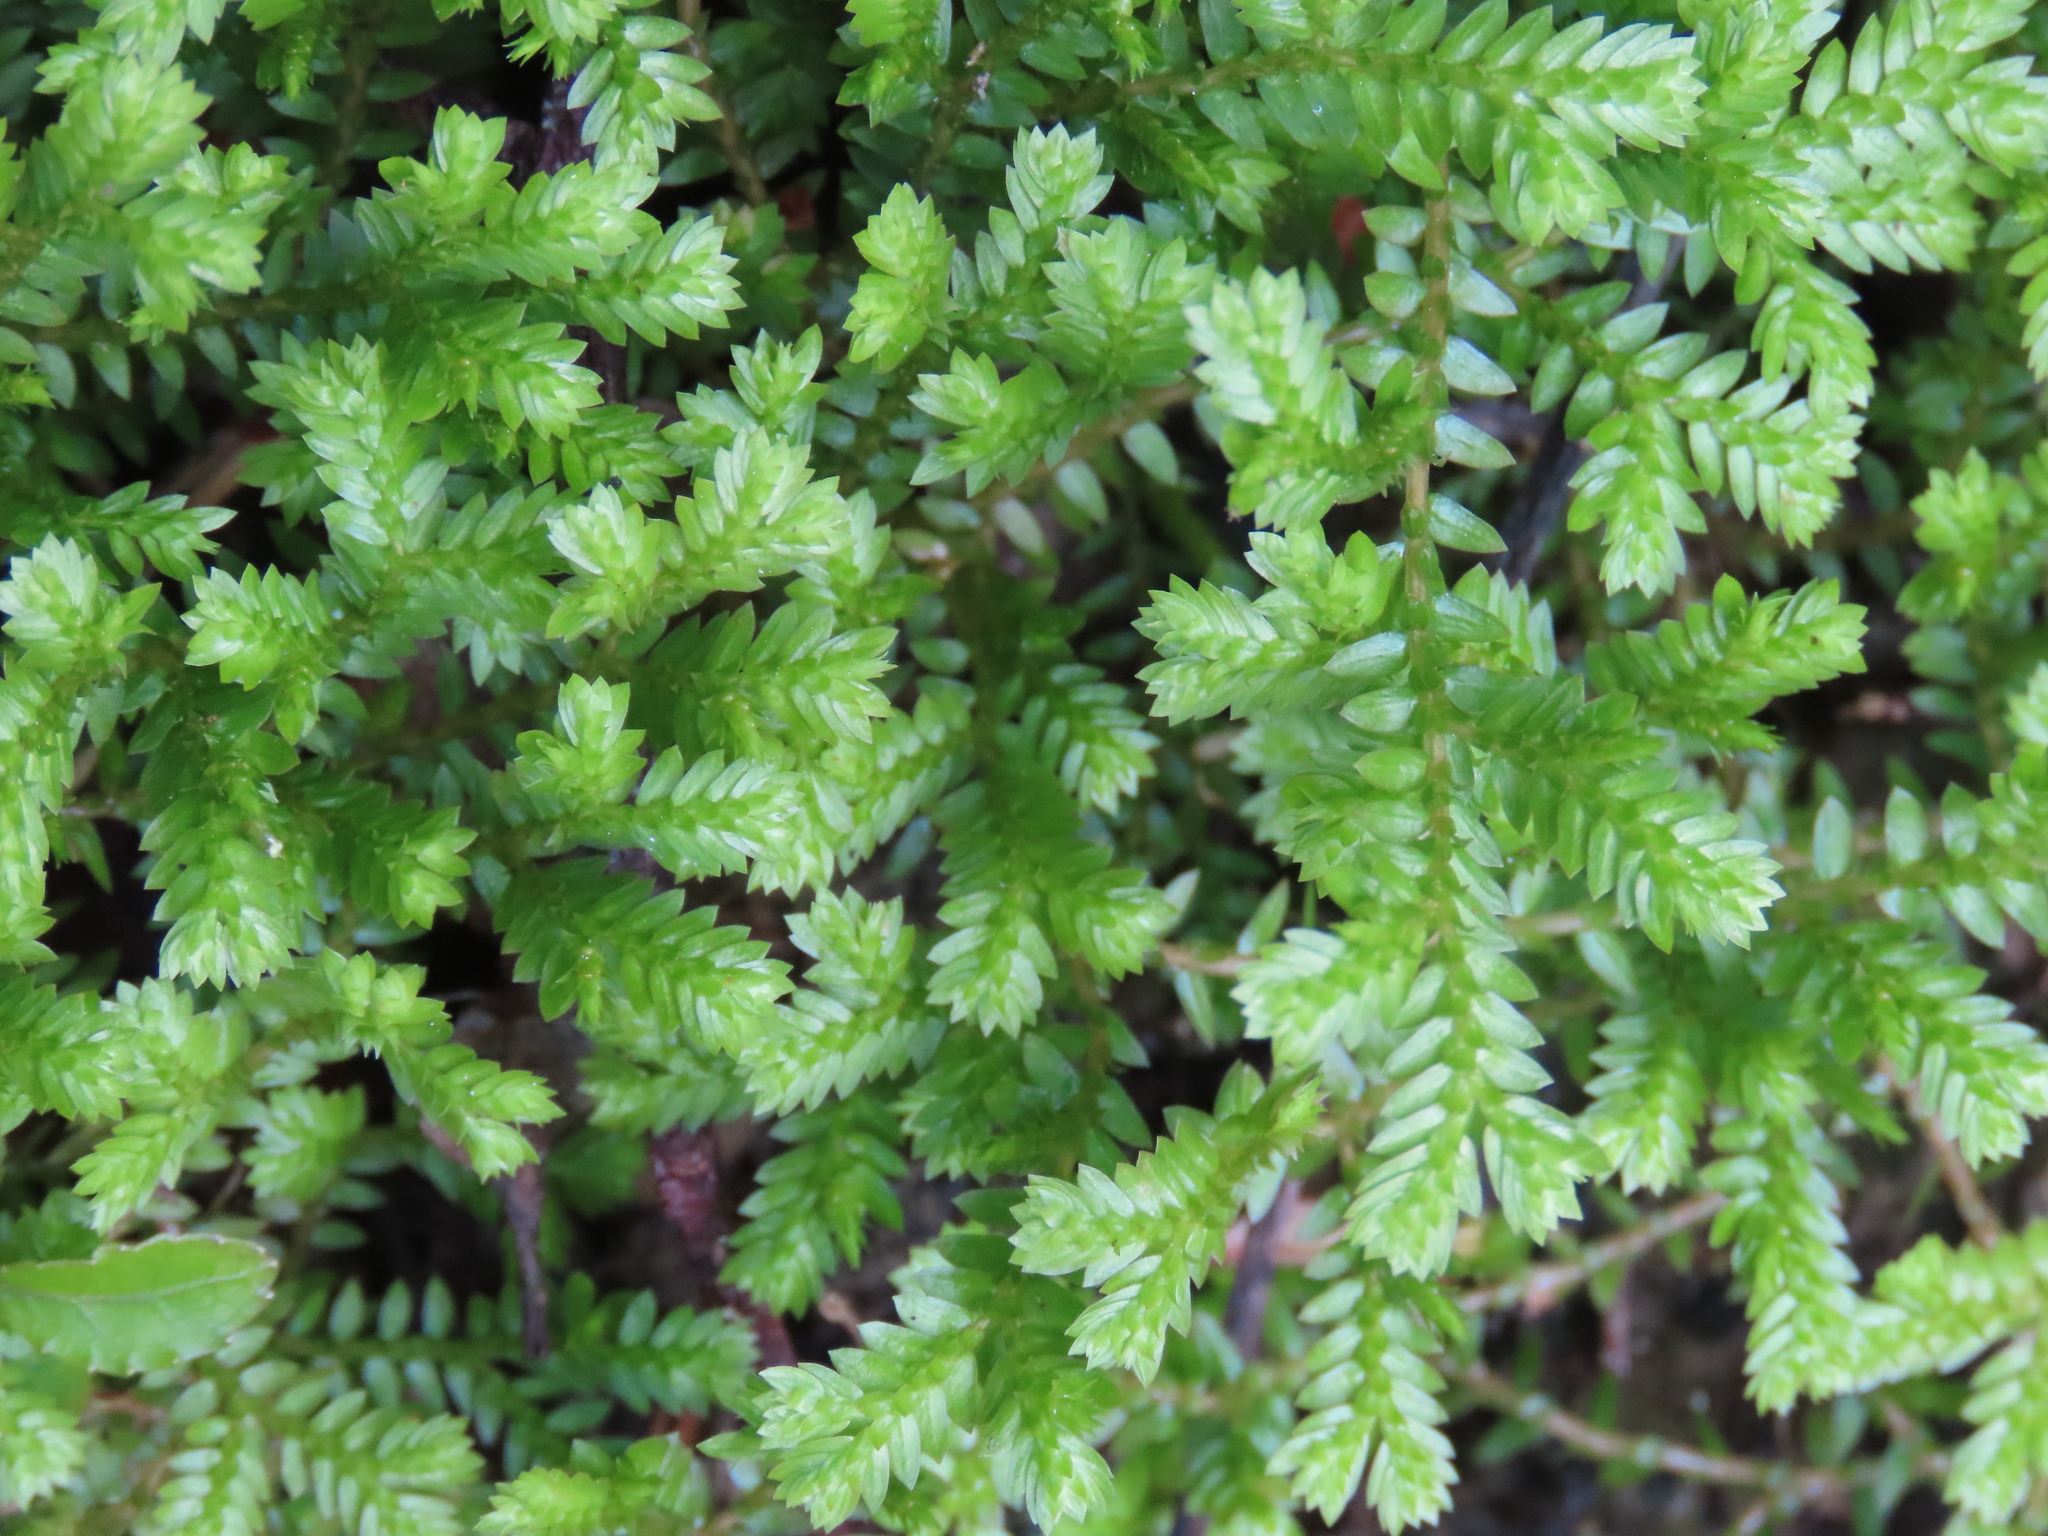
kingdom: Plantae
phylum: Tracheophyta
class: Lycopodiopsida
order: Selaginellales
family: Selaginellaceae
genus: Selaginella
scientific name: Selaginella kraussiana
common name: Krauss' spikemoss
